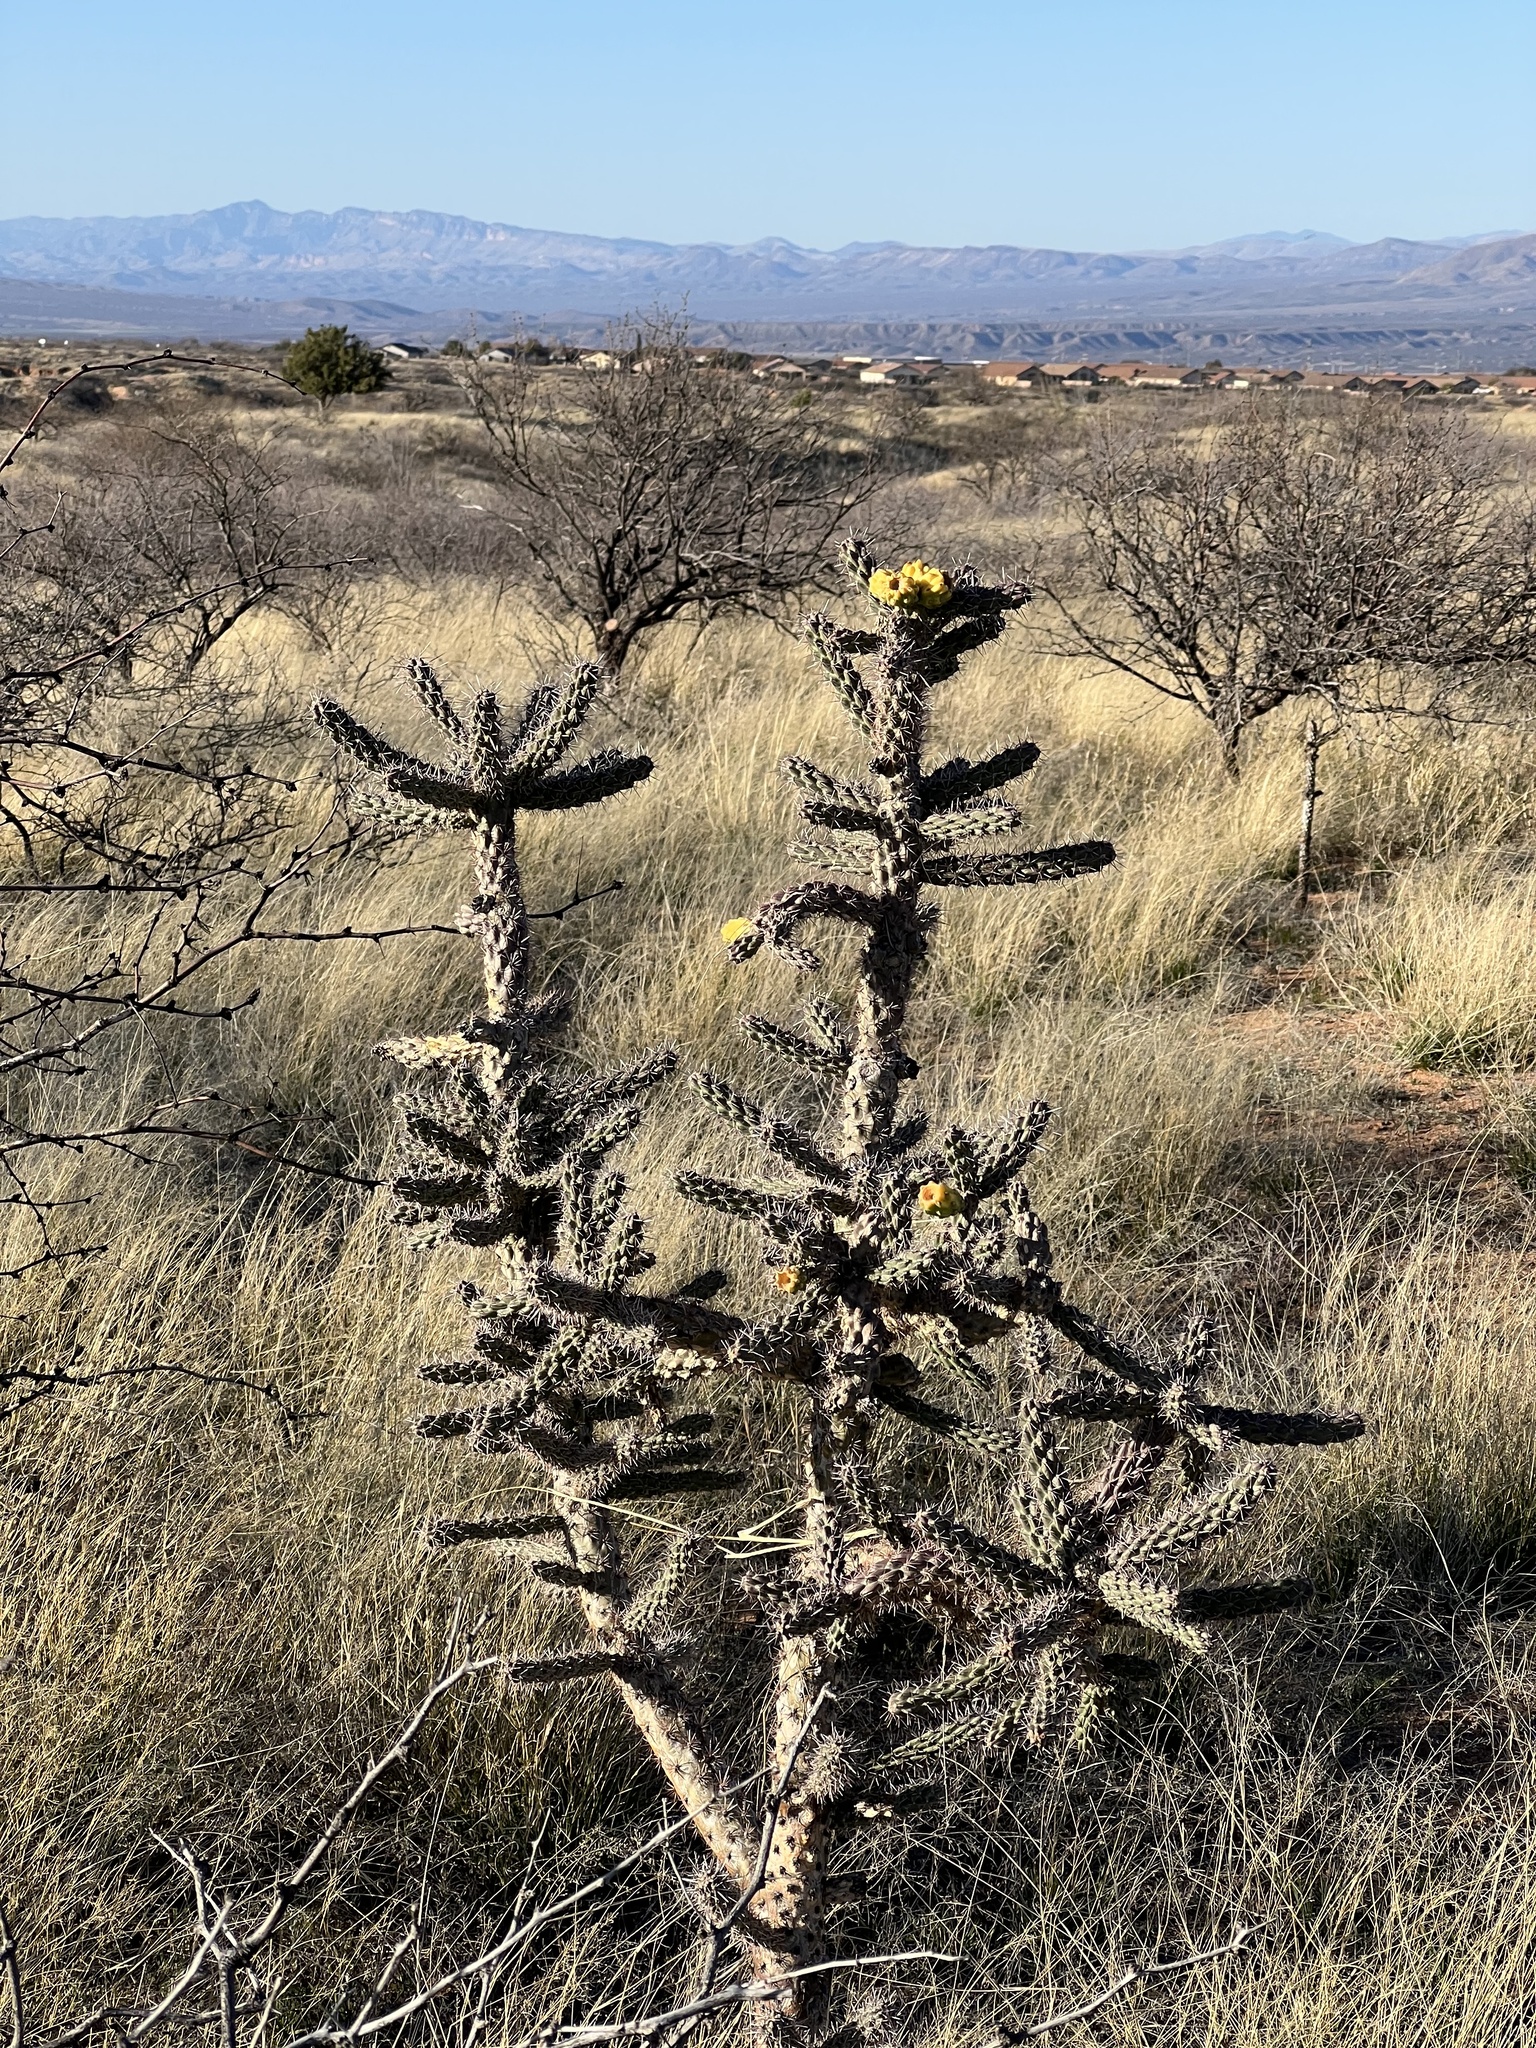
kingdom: Plantae
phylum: Tracheophyta
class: Magnoliopsida
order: Caryophyllales
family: Cactaceae
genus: Cylindropuntia
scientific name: Cylindropuntia imbricata
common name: Candelabrum cactus
